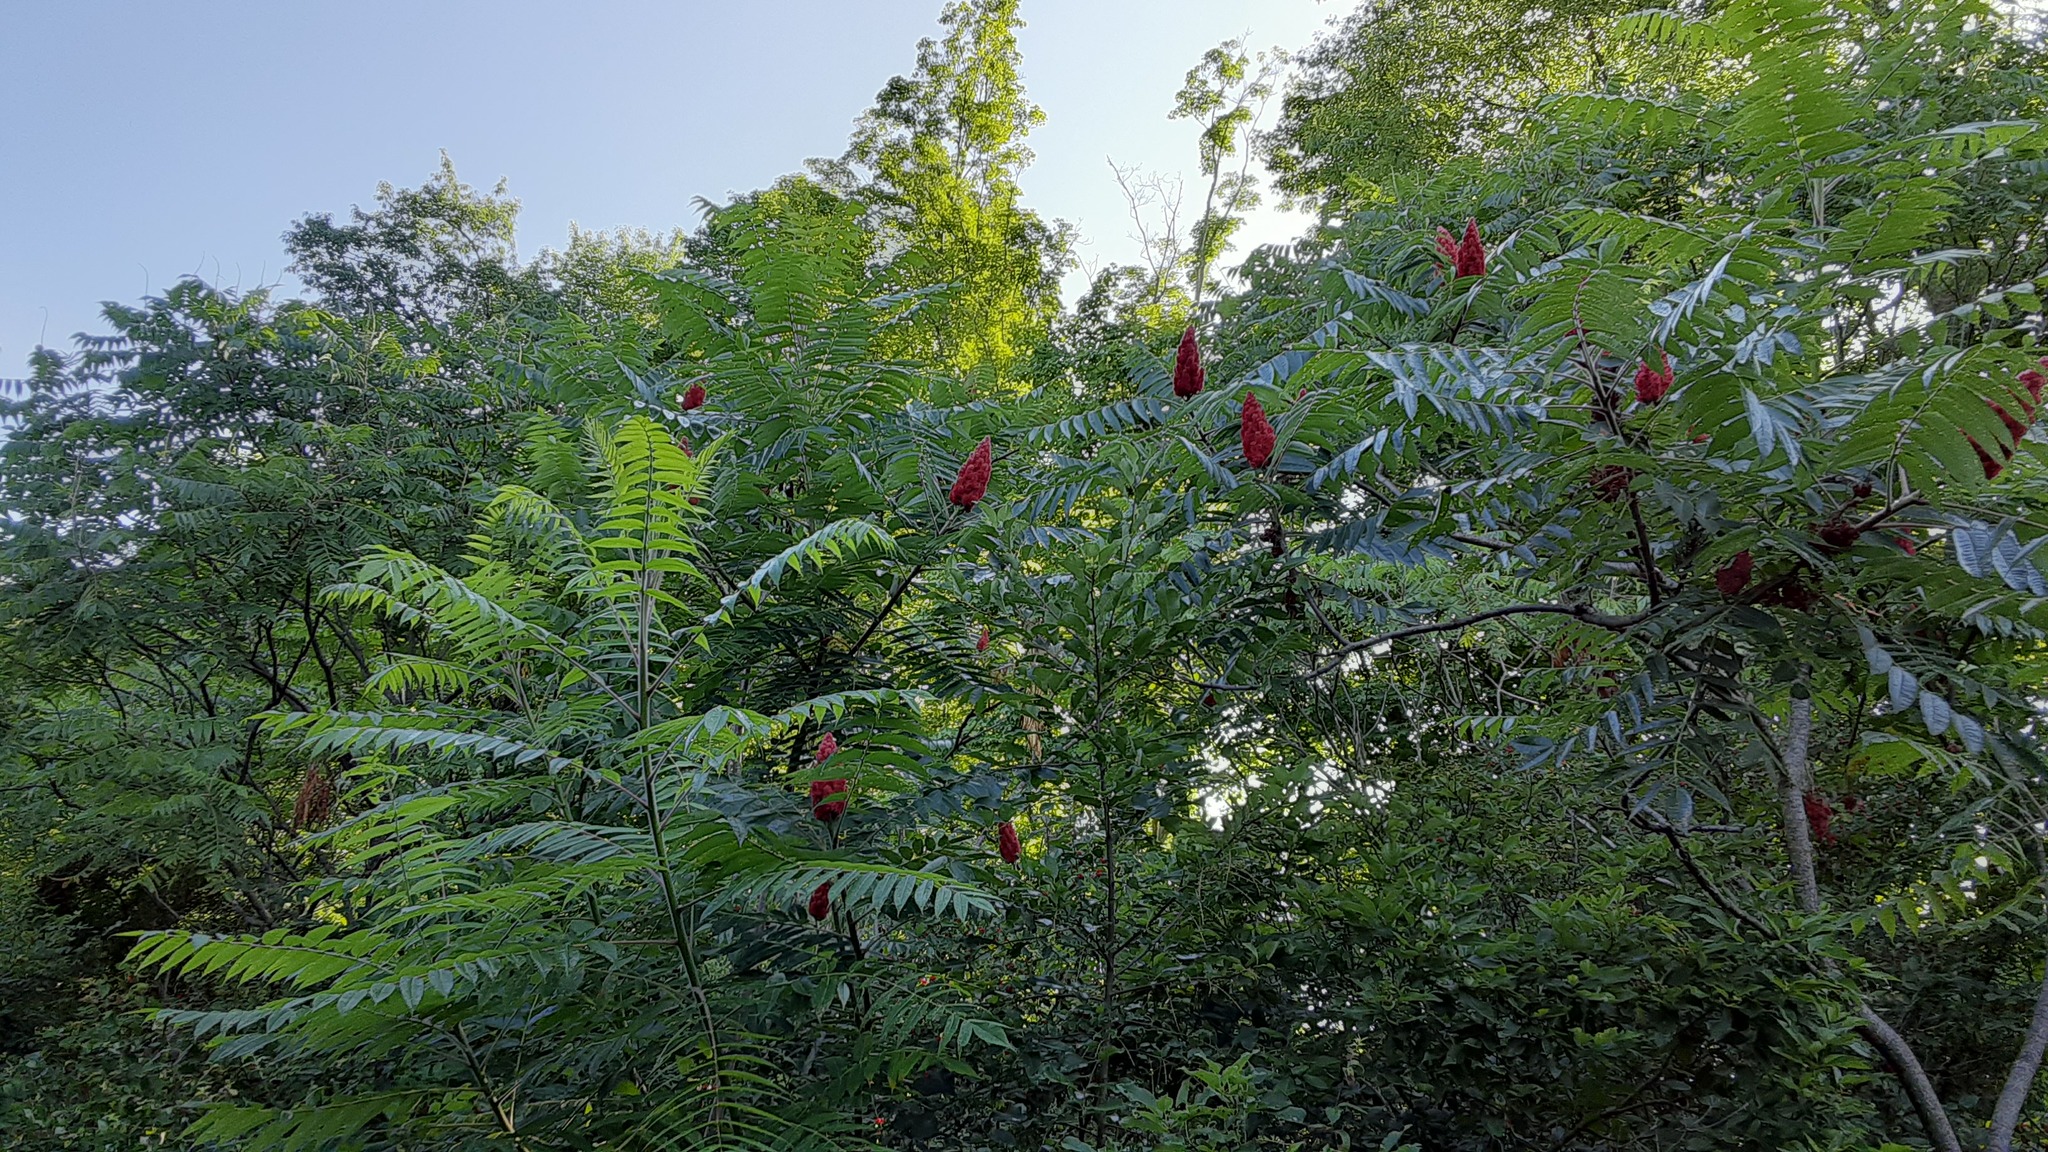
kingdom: Plantae
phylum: Tracheophyta
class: Magnoliopsida
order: Sapindales
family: Anacardiaceae
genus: Rhus
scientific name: Rhus typhina
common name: Staghorn sumac
